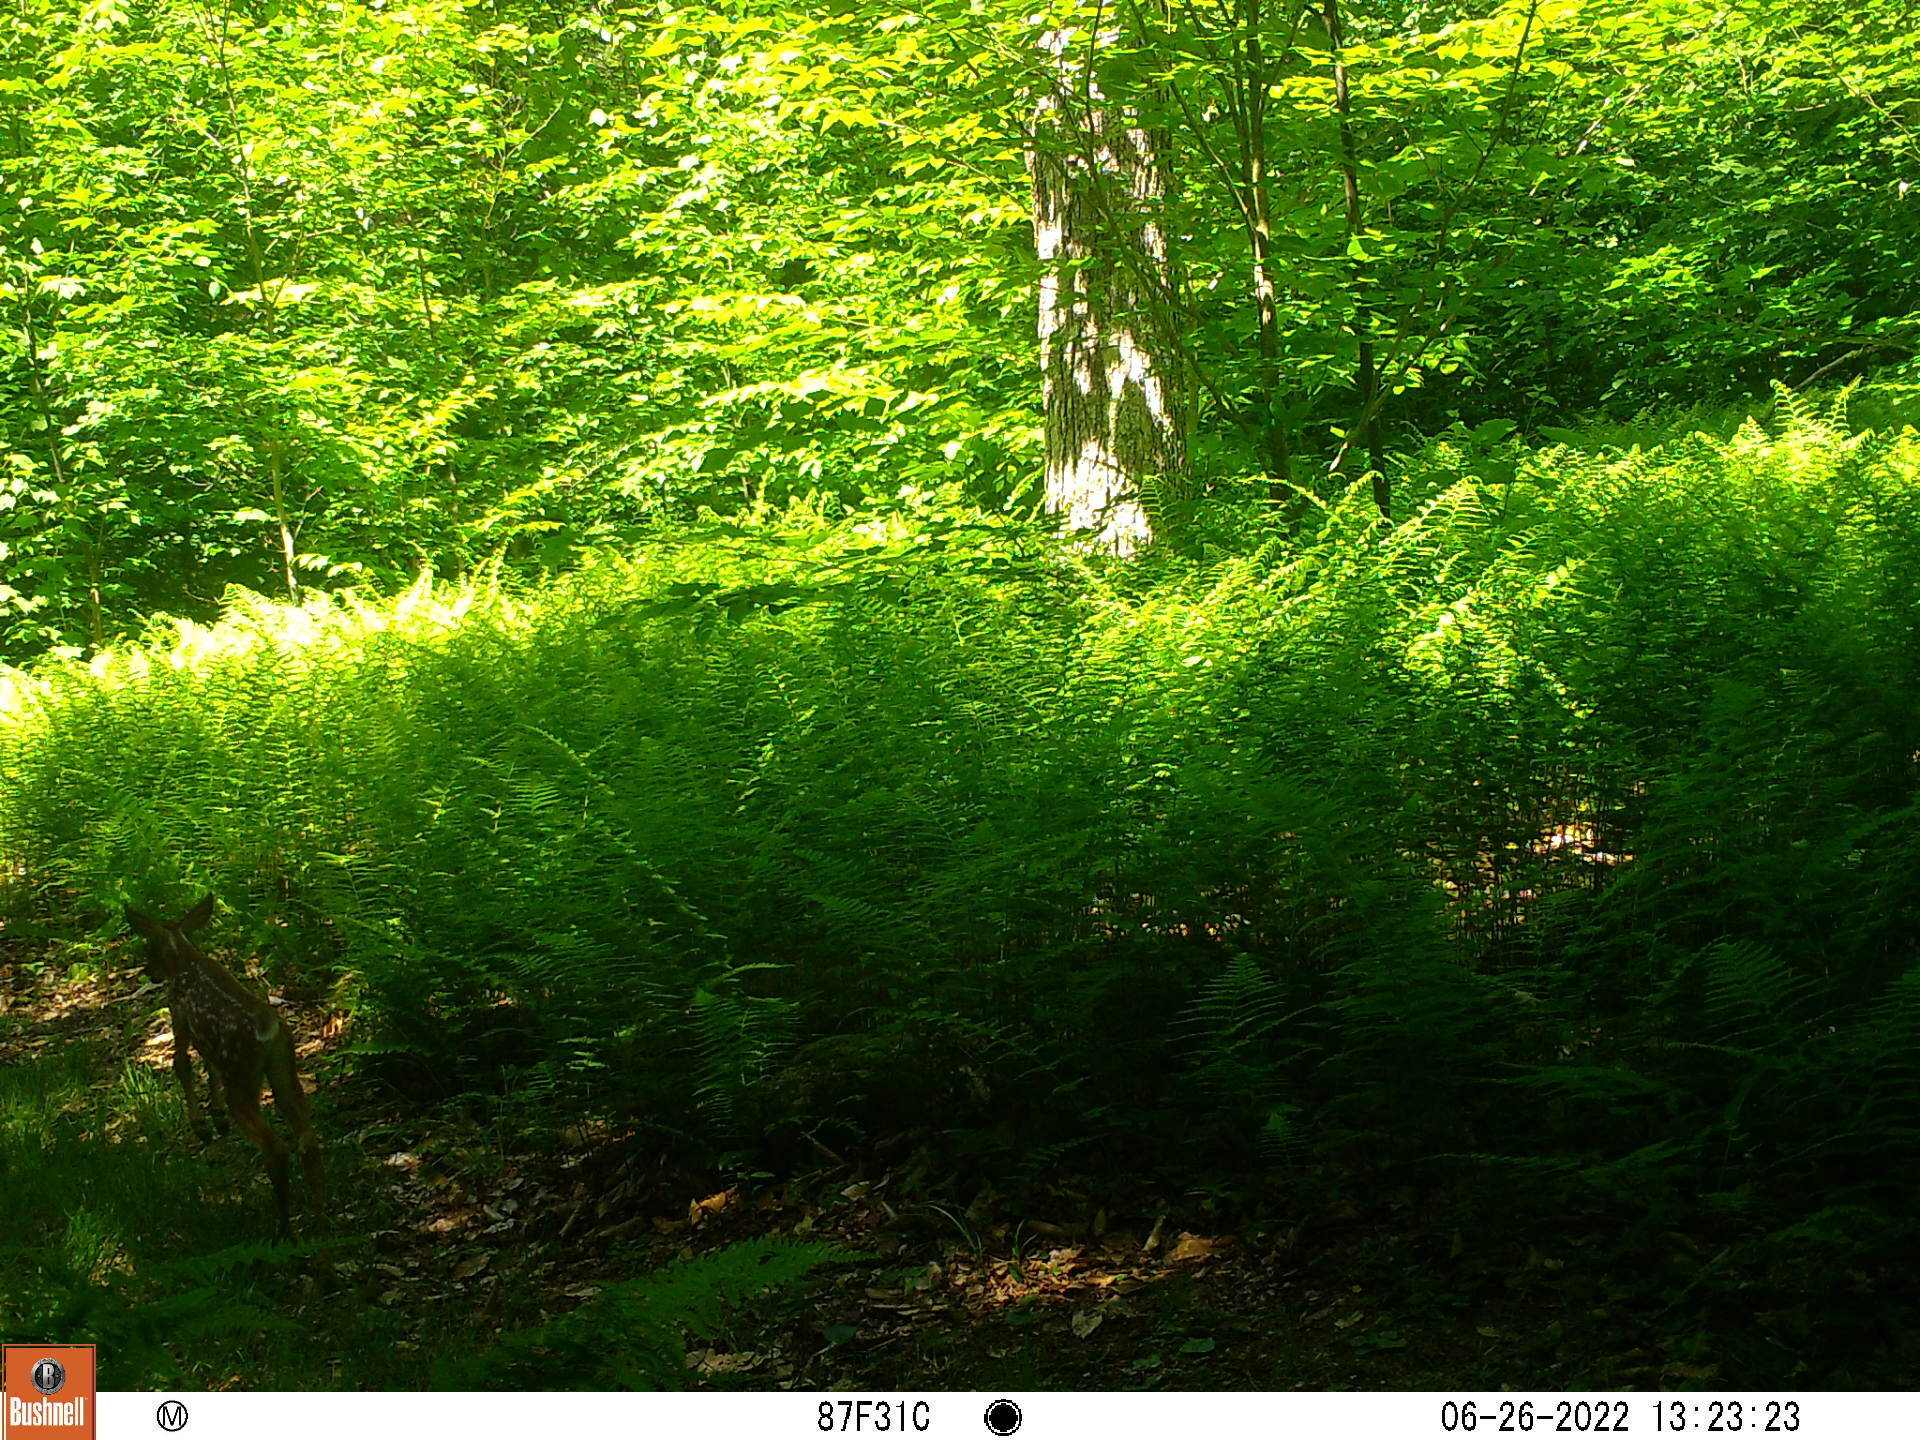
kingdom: Animalia
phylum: Chordata
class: Mammalia
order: Artiodactyla
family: Cervidae
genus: Odocoileus
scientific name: Odocoileus virginianus
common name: White-tailed deer
